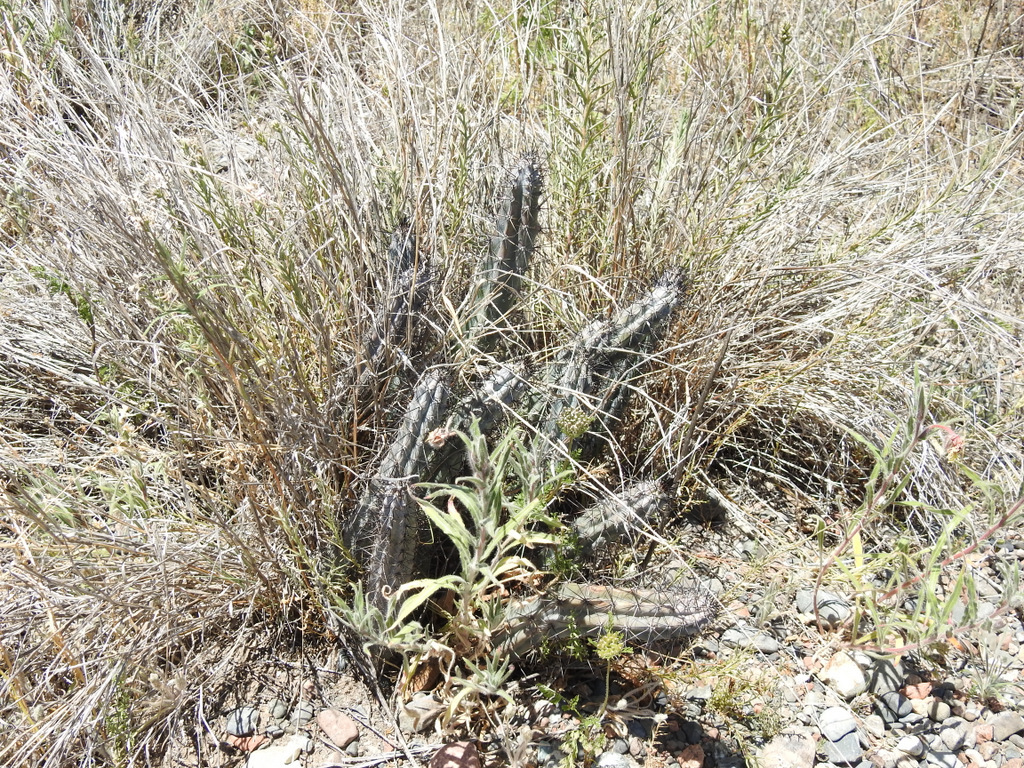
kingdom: Plantae
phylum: Tracheophyta
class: Magnoliopsida
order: Caryophyllales
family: Cactaceae
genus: Cereus
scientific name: Cereus aethiops
